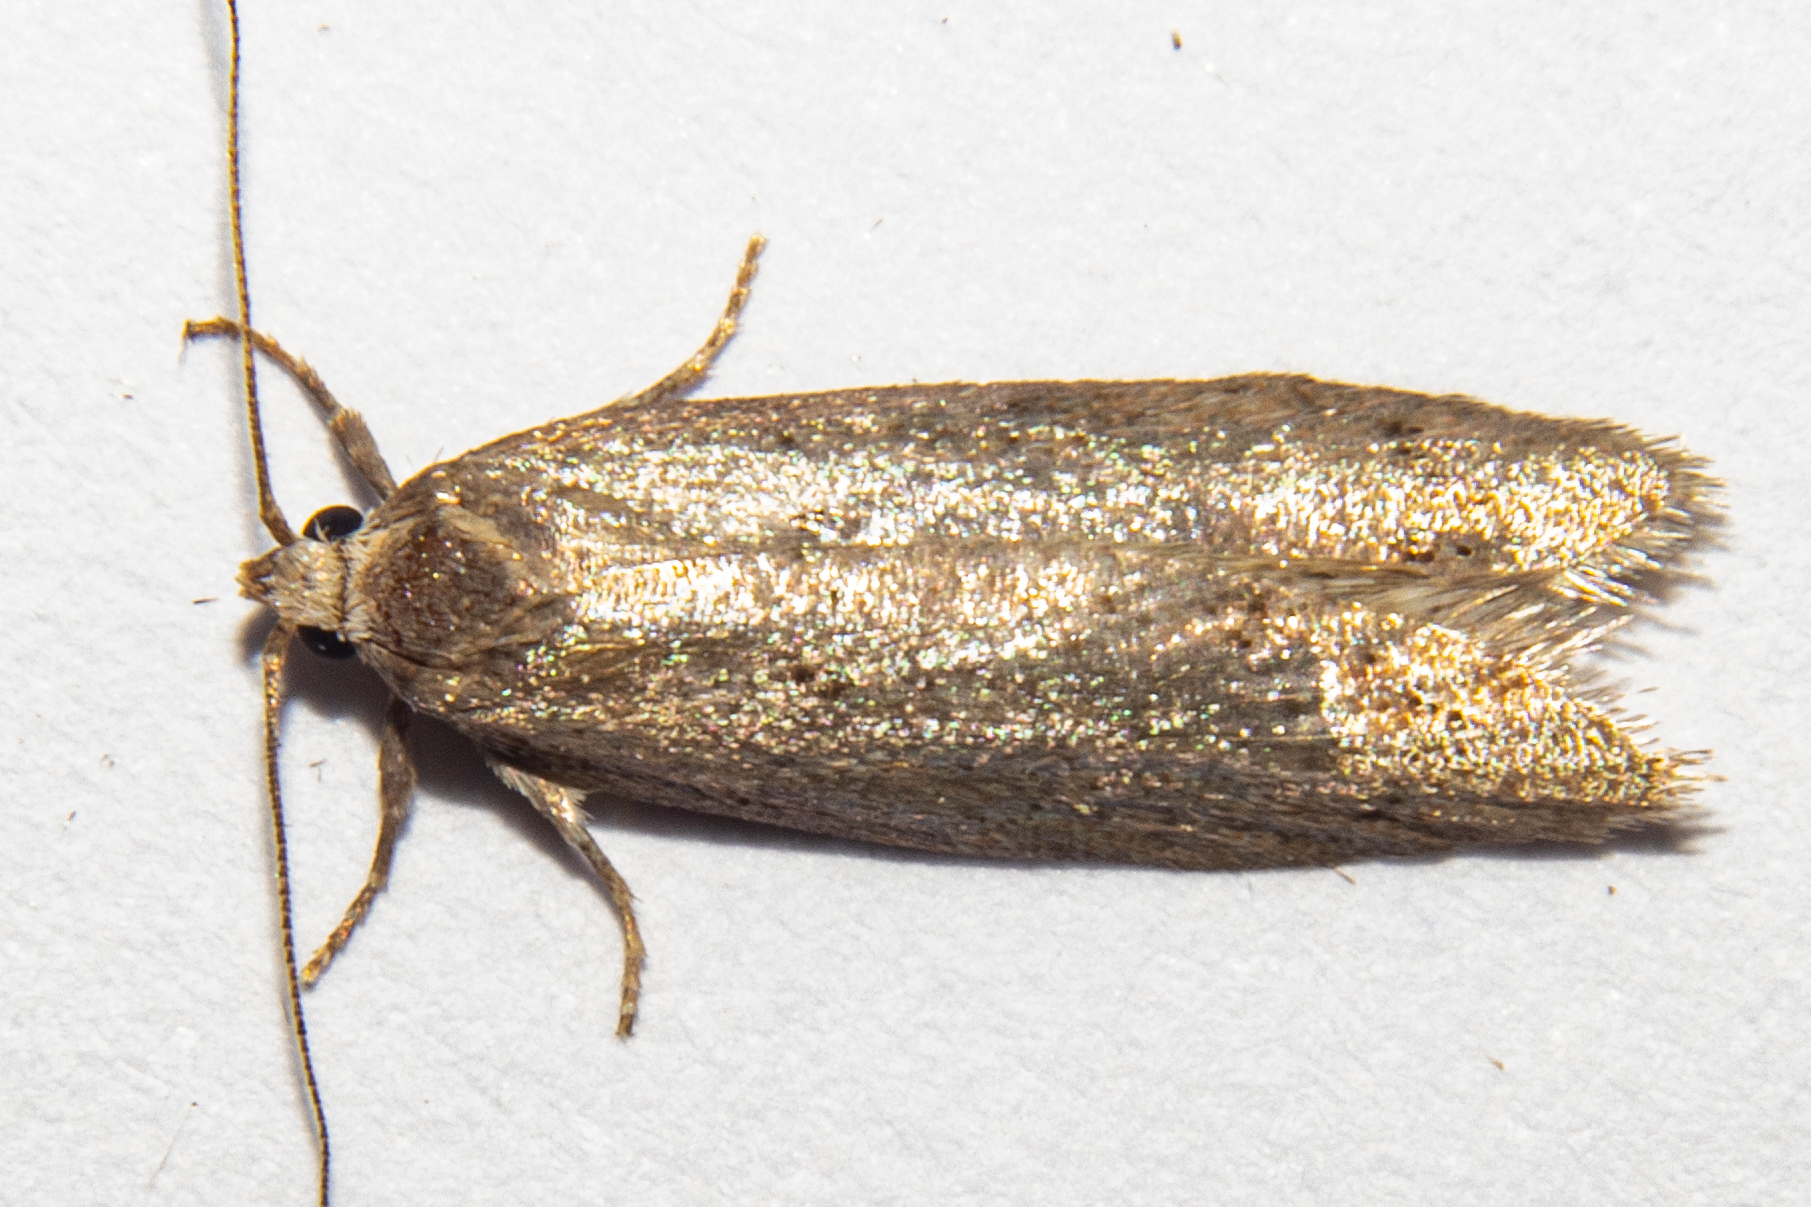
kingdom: Animalia
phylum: Arthropoda
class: Insecta
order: Lepidoptera
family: Oecophoridae
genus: Leptocroca
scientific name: Leptocroca
